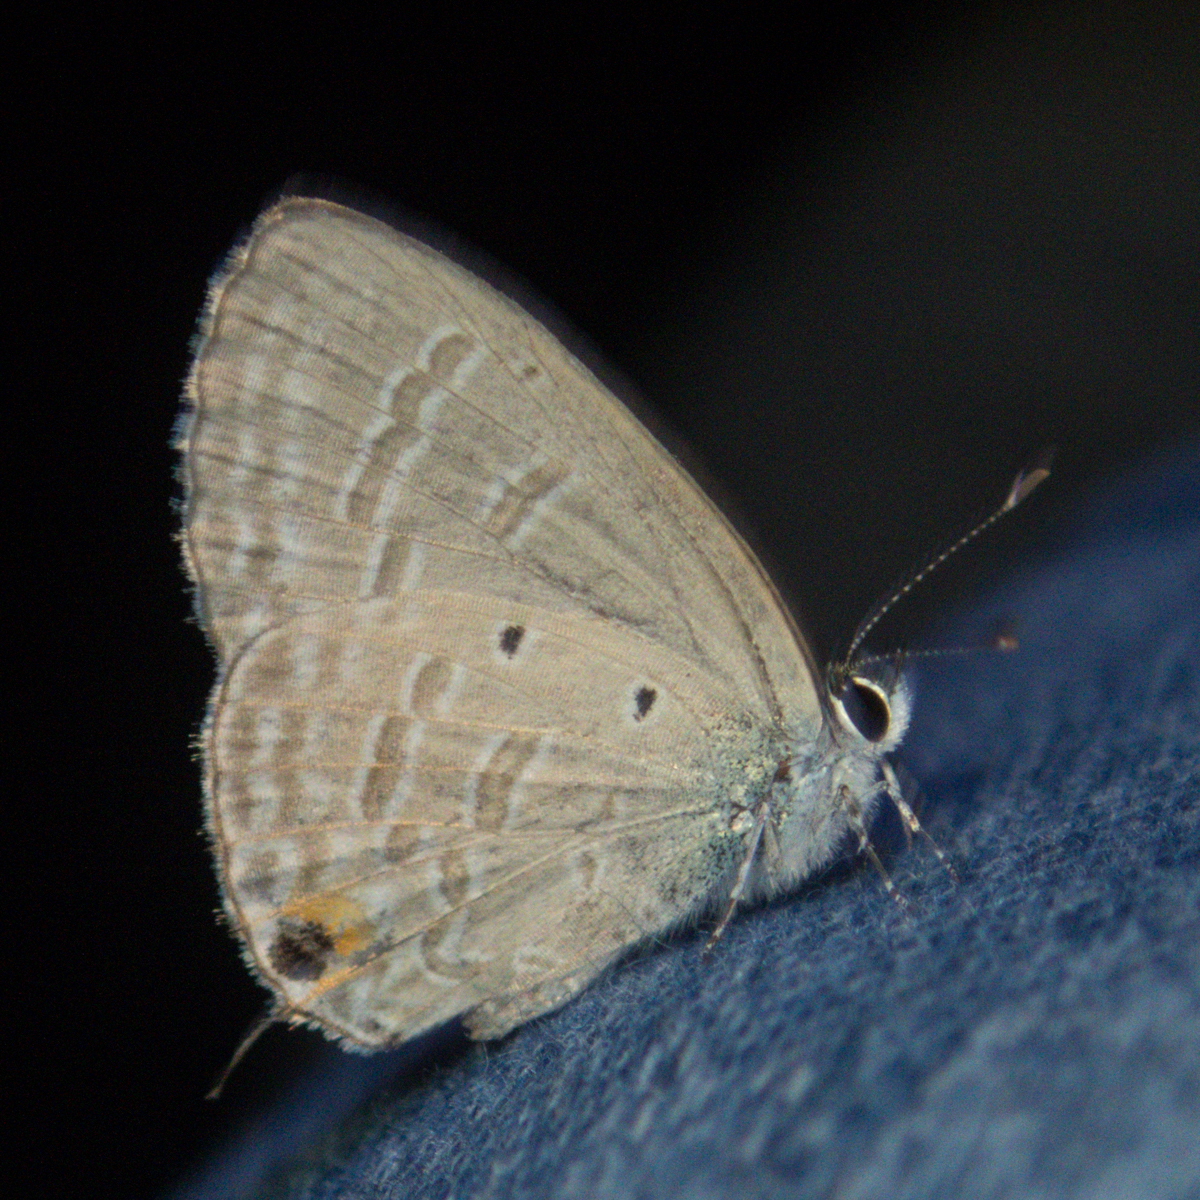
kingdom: Animalia
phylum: Arthropoda
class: Insecta
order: Lepidoptera
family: Lycaenidae
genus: Catochrysops
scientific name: Catochrysops strabo
